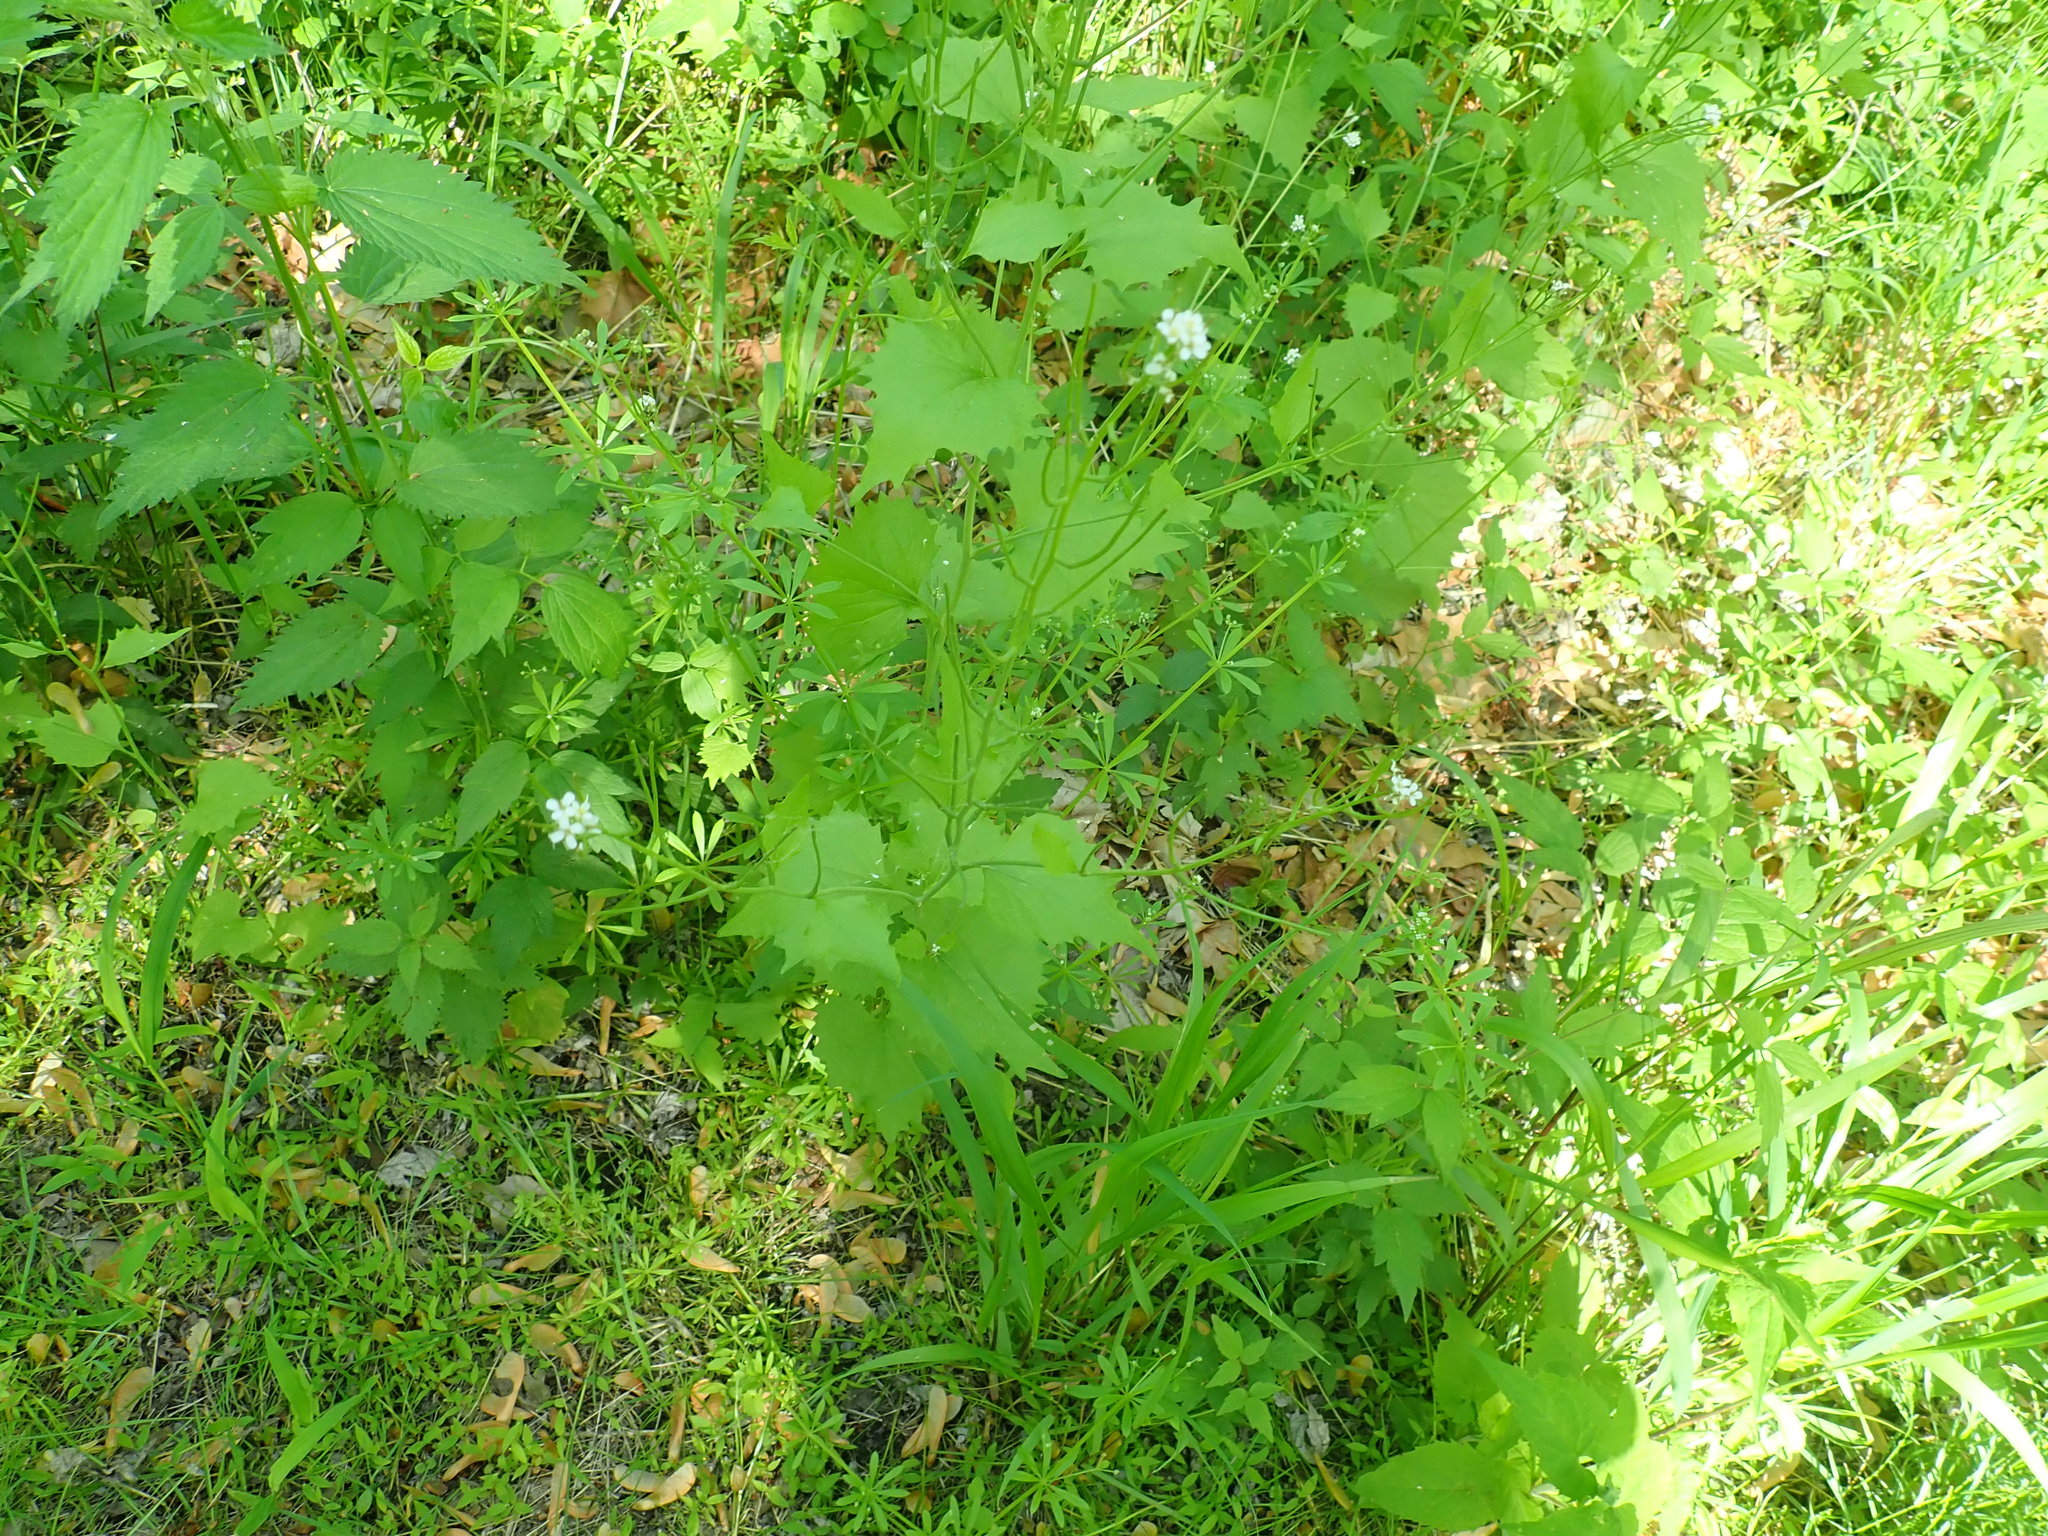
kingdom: Plantae
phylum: Tracheophyta
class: Magnoliopsida
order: Brassicales
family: Brassicaceae
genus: Alliaria
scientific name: Alliaria petiolata
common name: Garlic mustard
